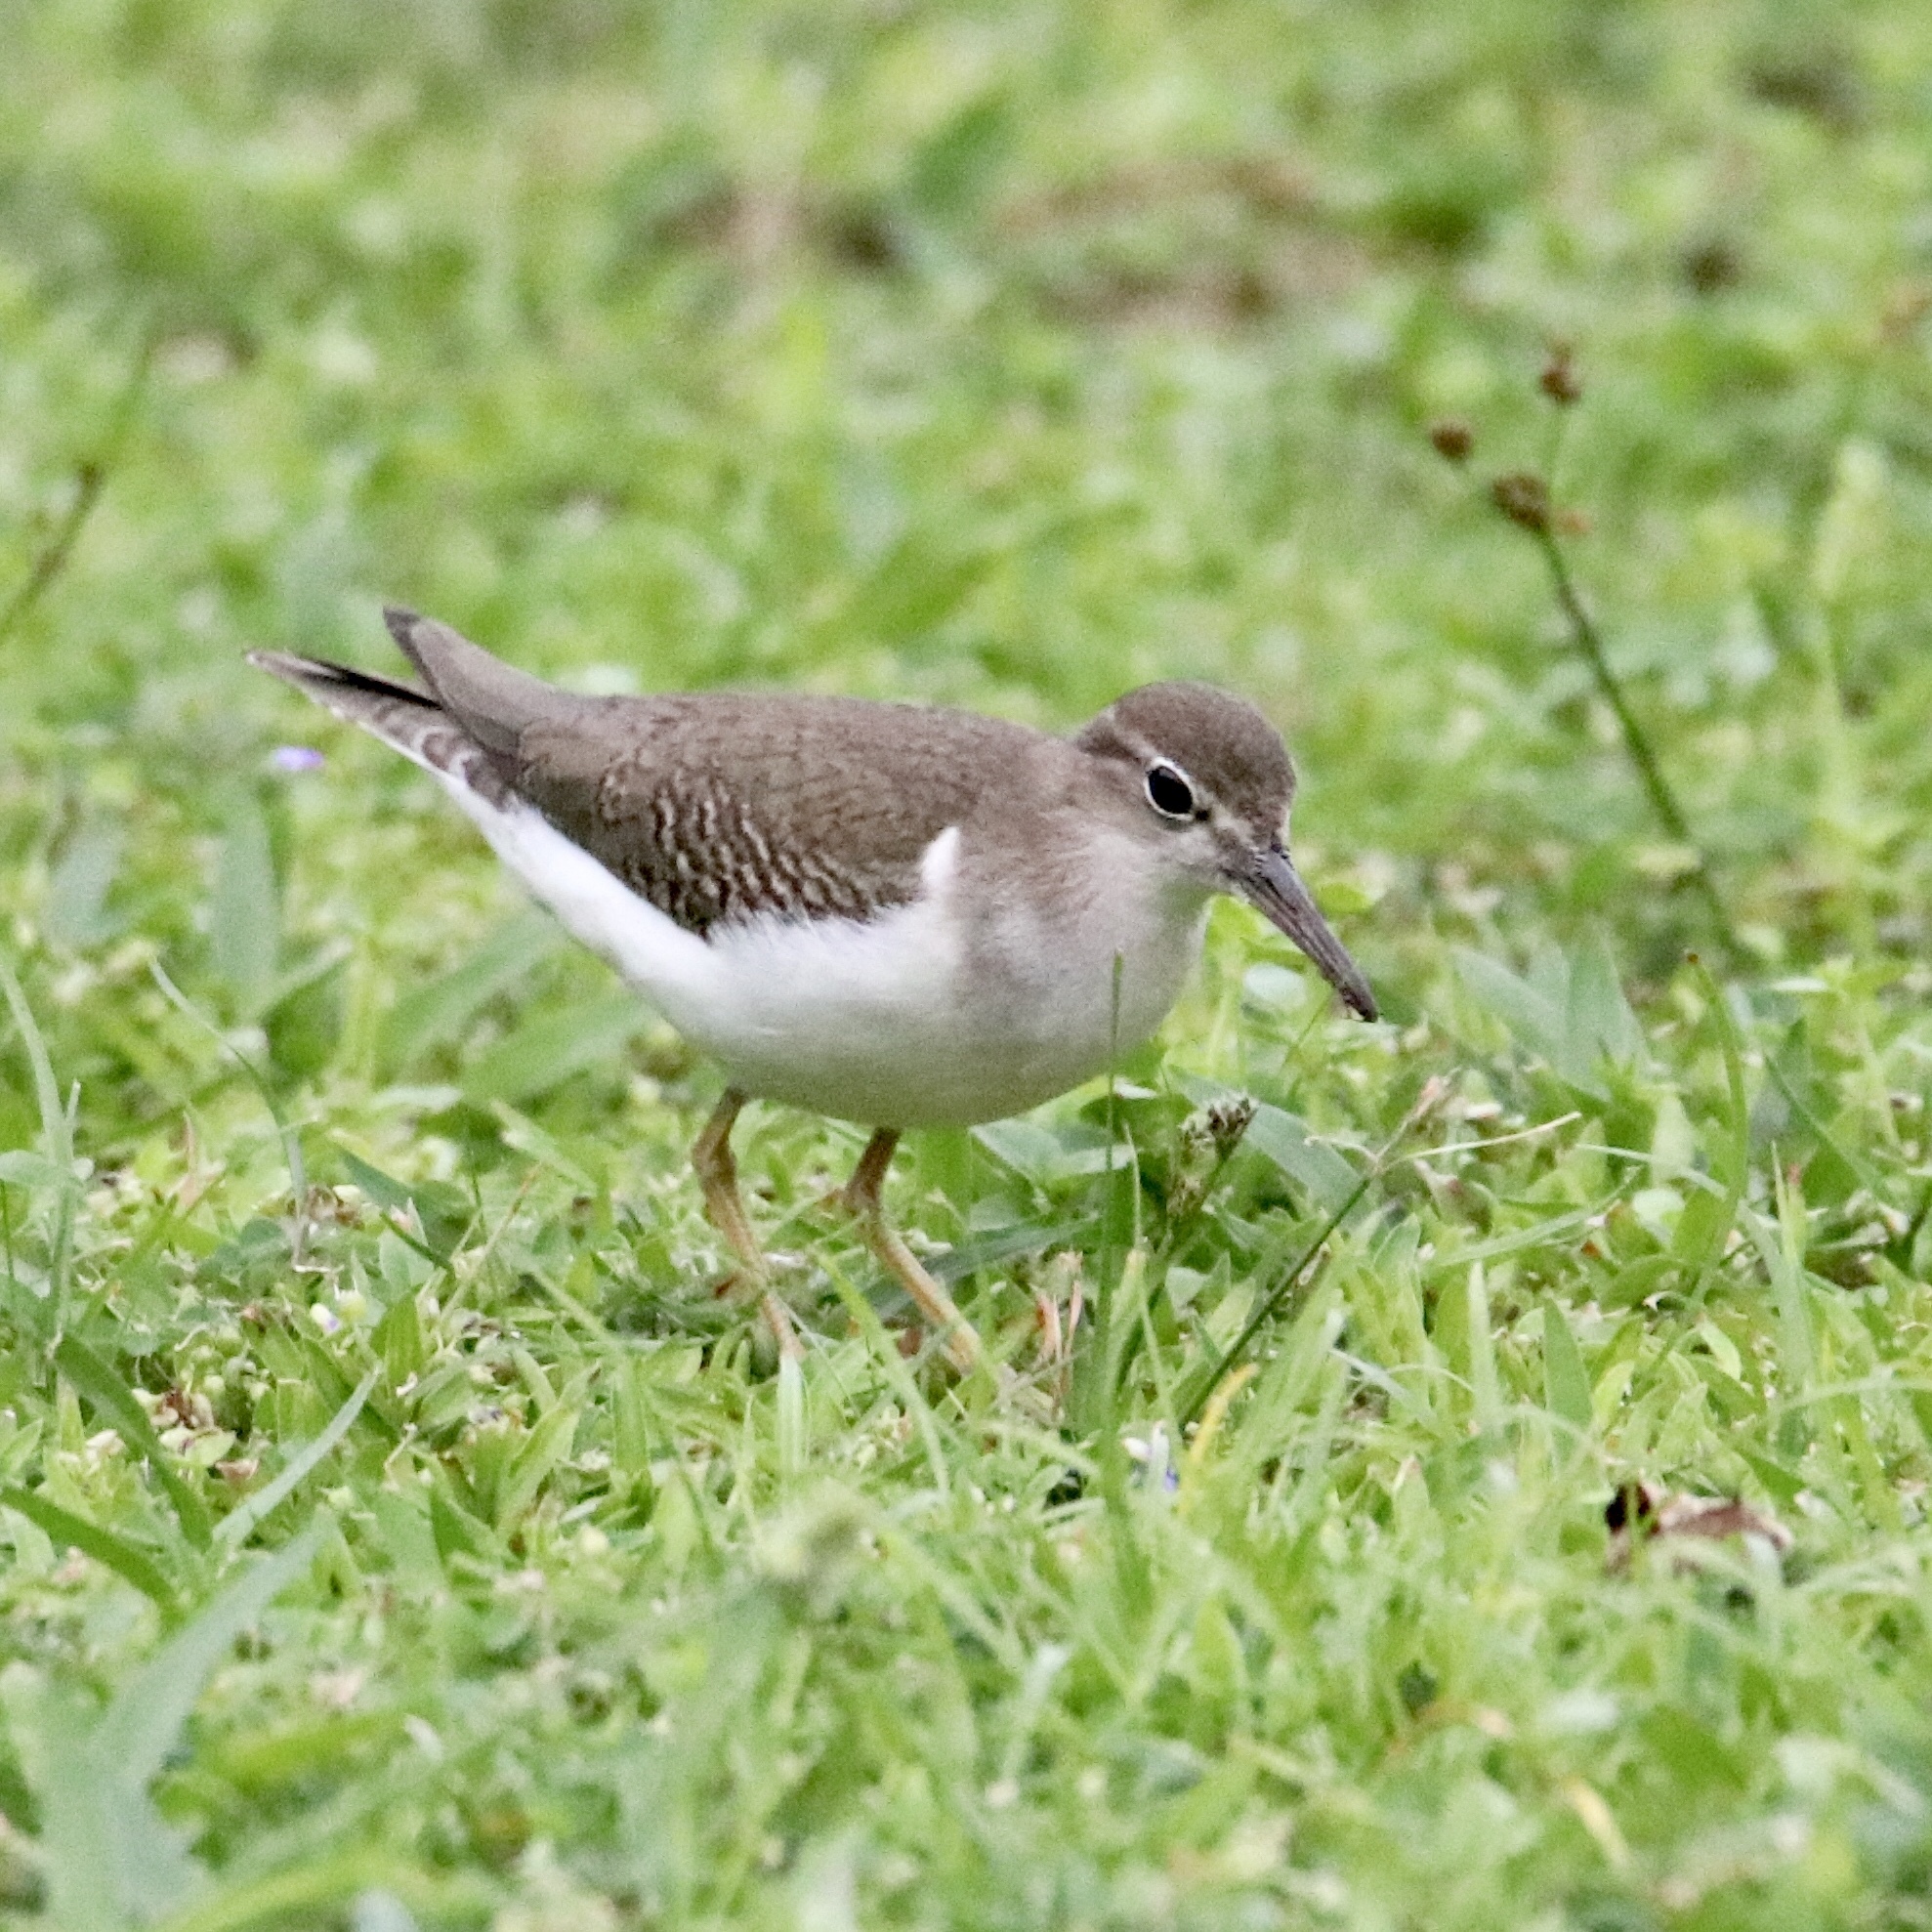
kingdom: Animalia
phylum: Chordata
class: Aves
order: Charadriiformes
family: Scolopacidae
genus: Actitis
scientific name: Actitis macularius
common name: Spotted sandpiper
